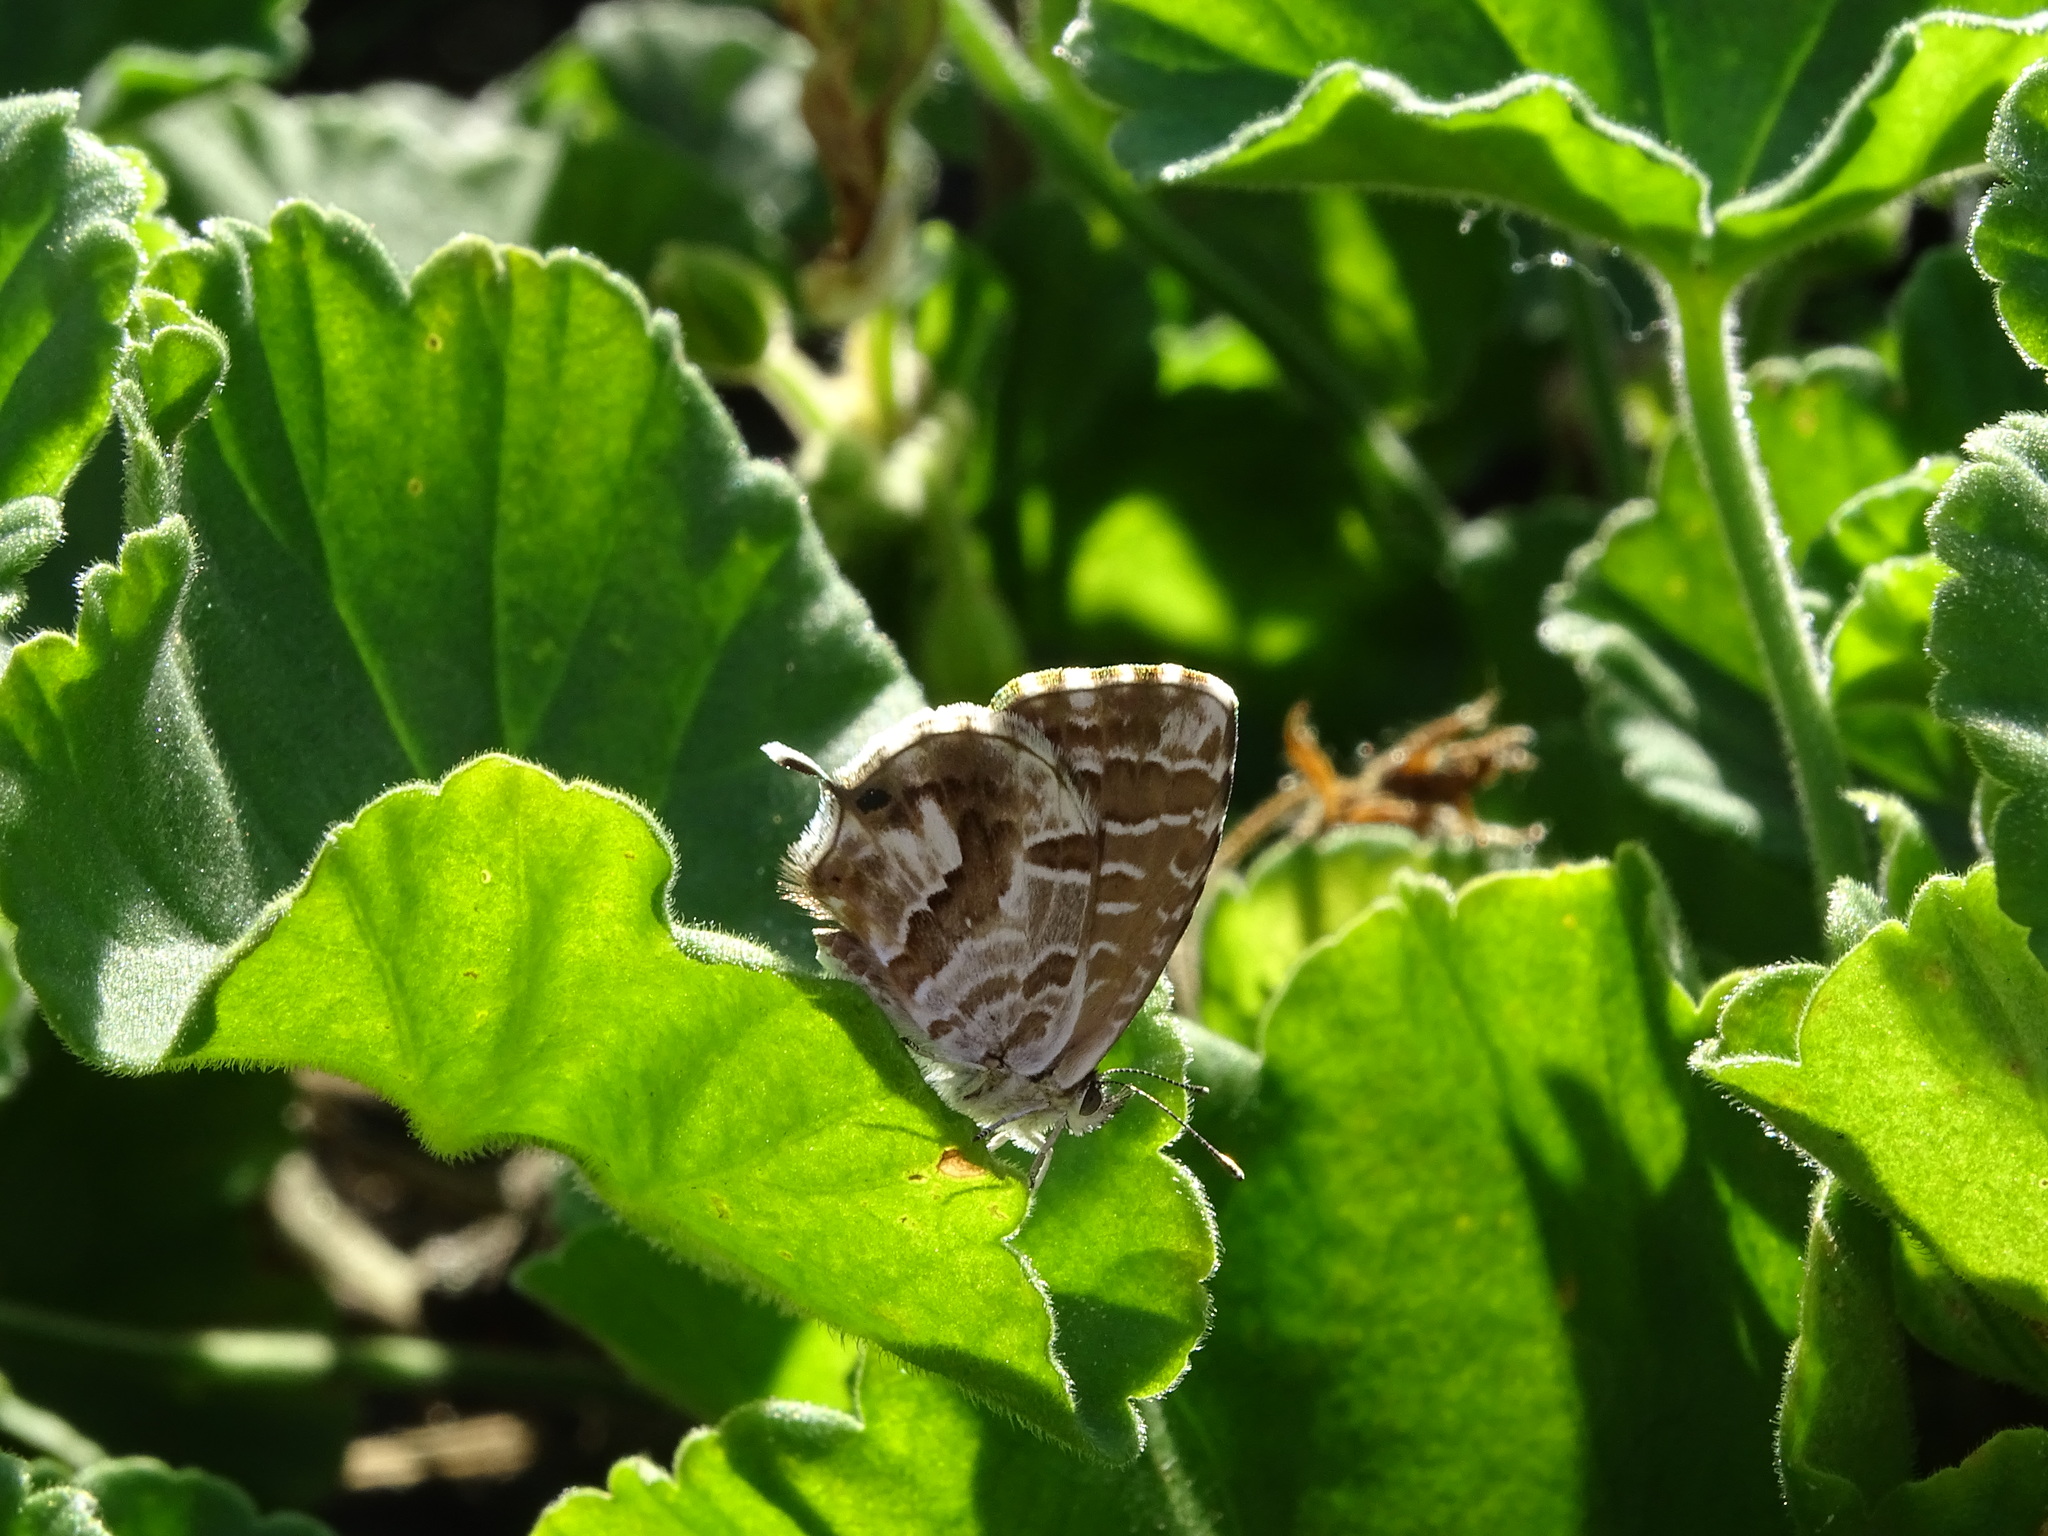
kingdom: Animalia
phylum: Arthropoda
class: Insecta
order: Lepidoptera
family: Lycaenidae
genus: Cacyreus
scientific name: Cacyreus marshalli
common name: Geranium bronze
